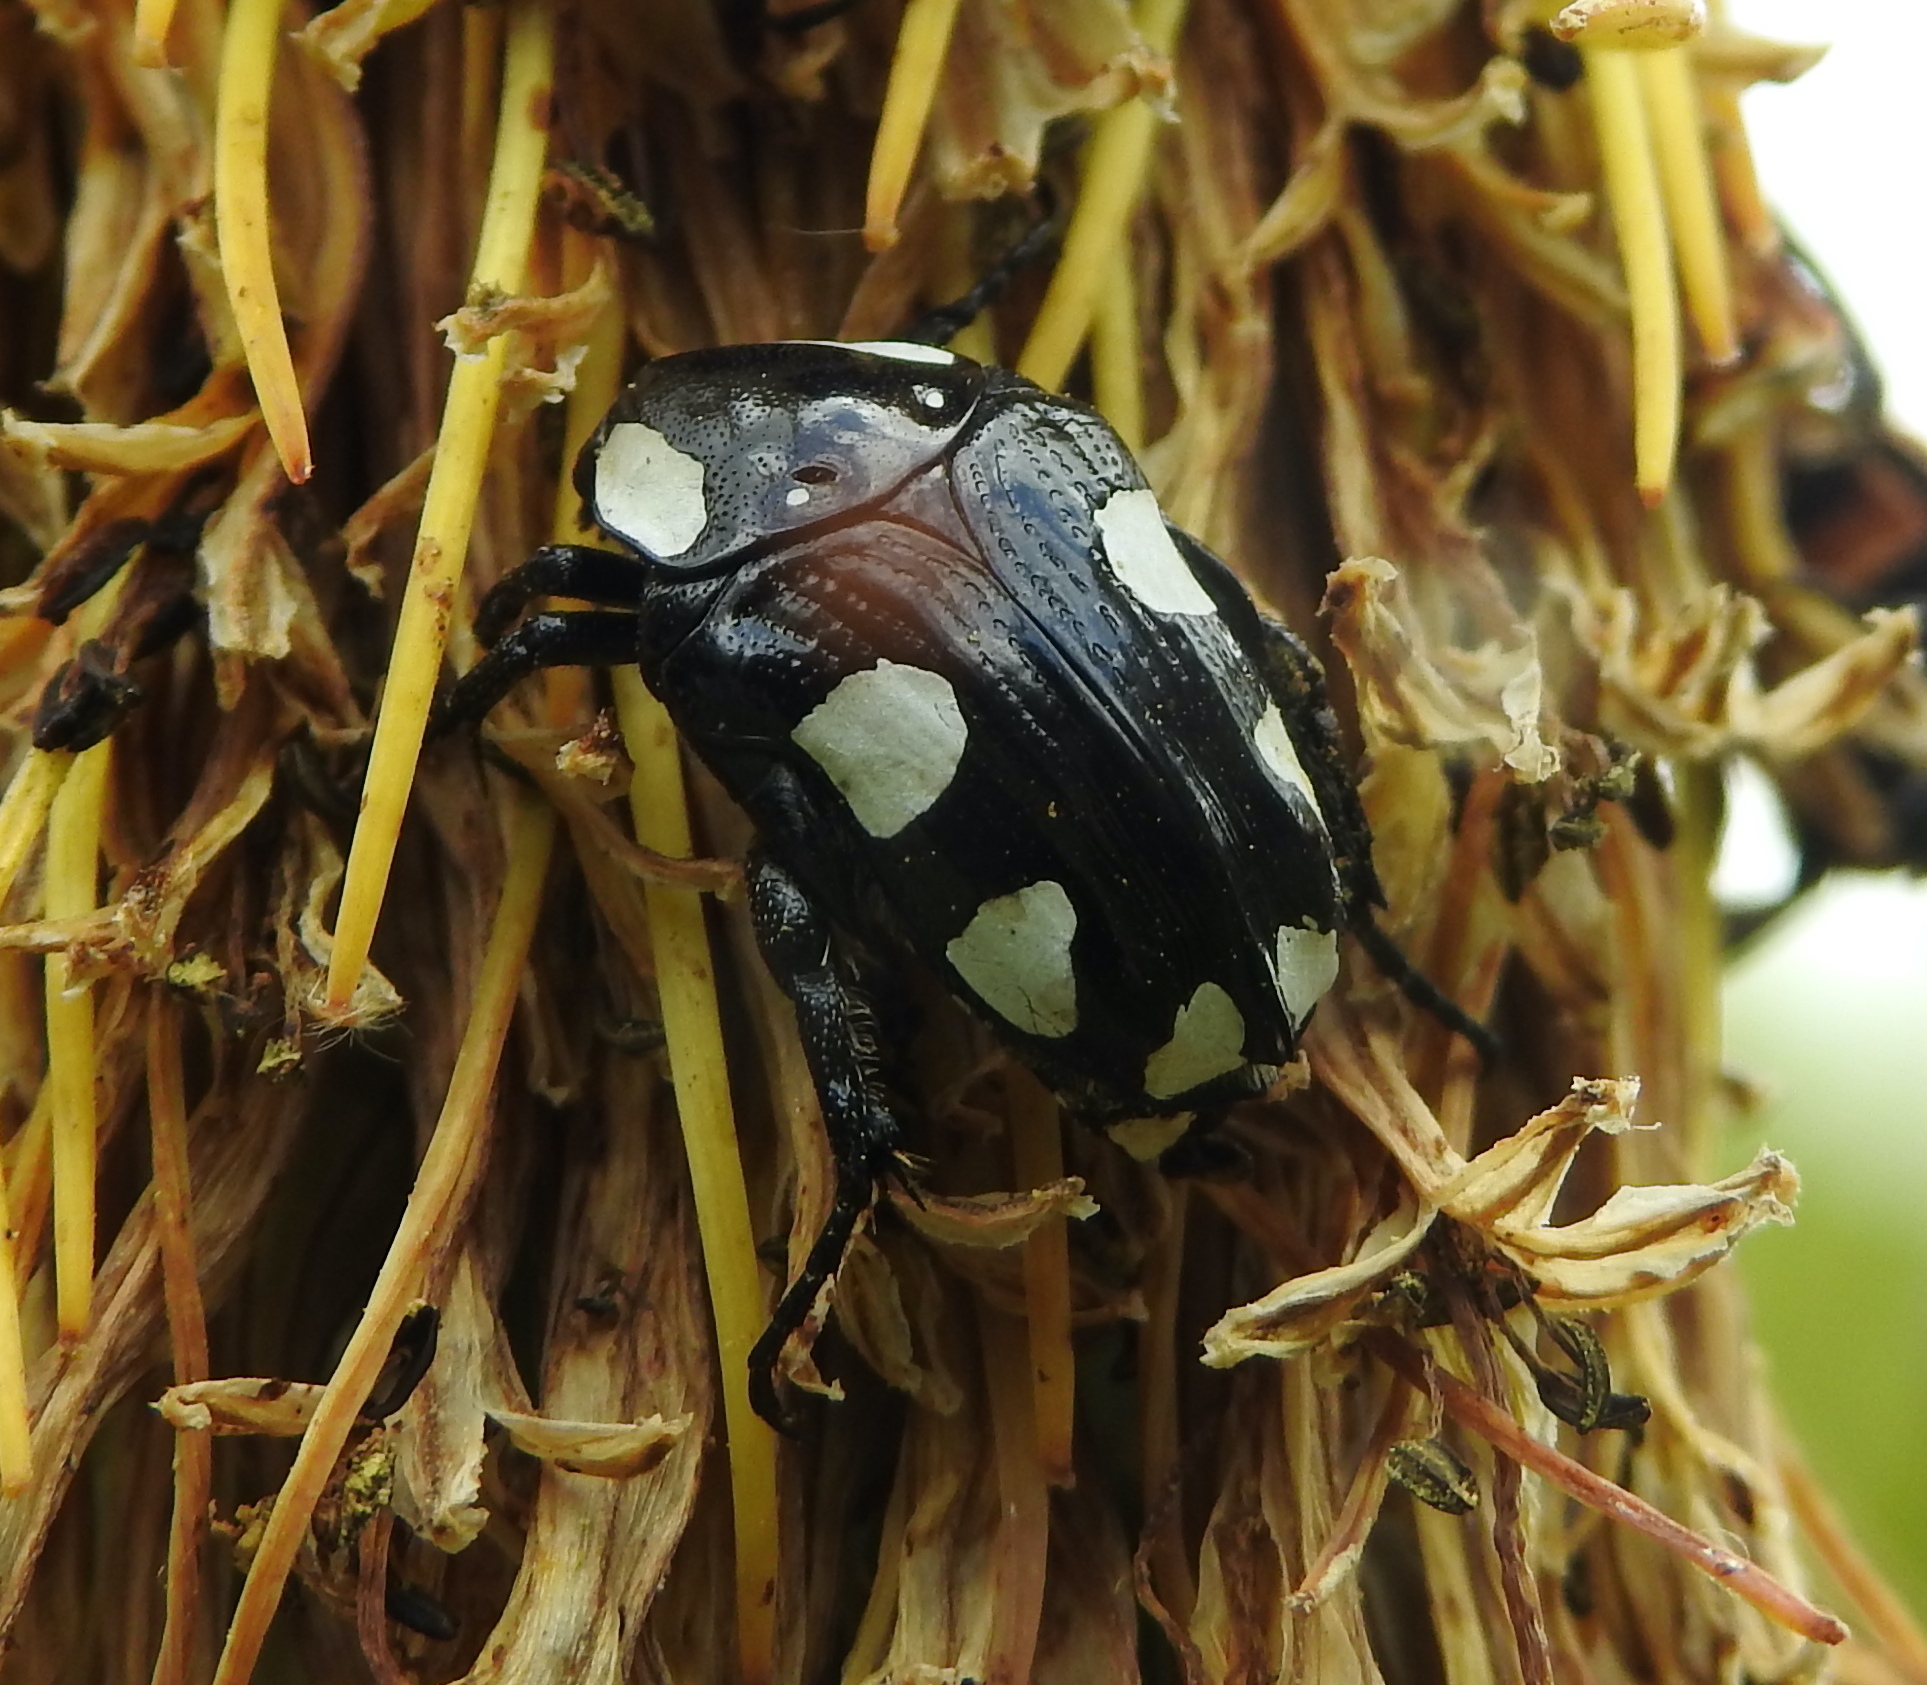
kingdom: Animalia
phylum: Arthropoda
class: Insecta
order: Coleoptera
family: Scarabaeidae
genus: Mausoleopsis
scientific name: Mausoleopsis amabilis
